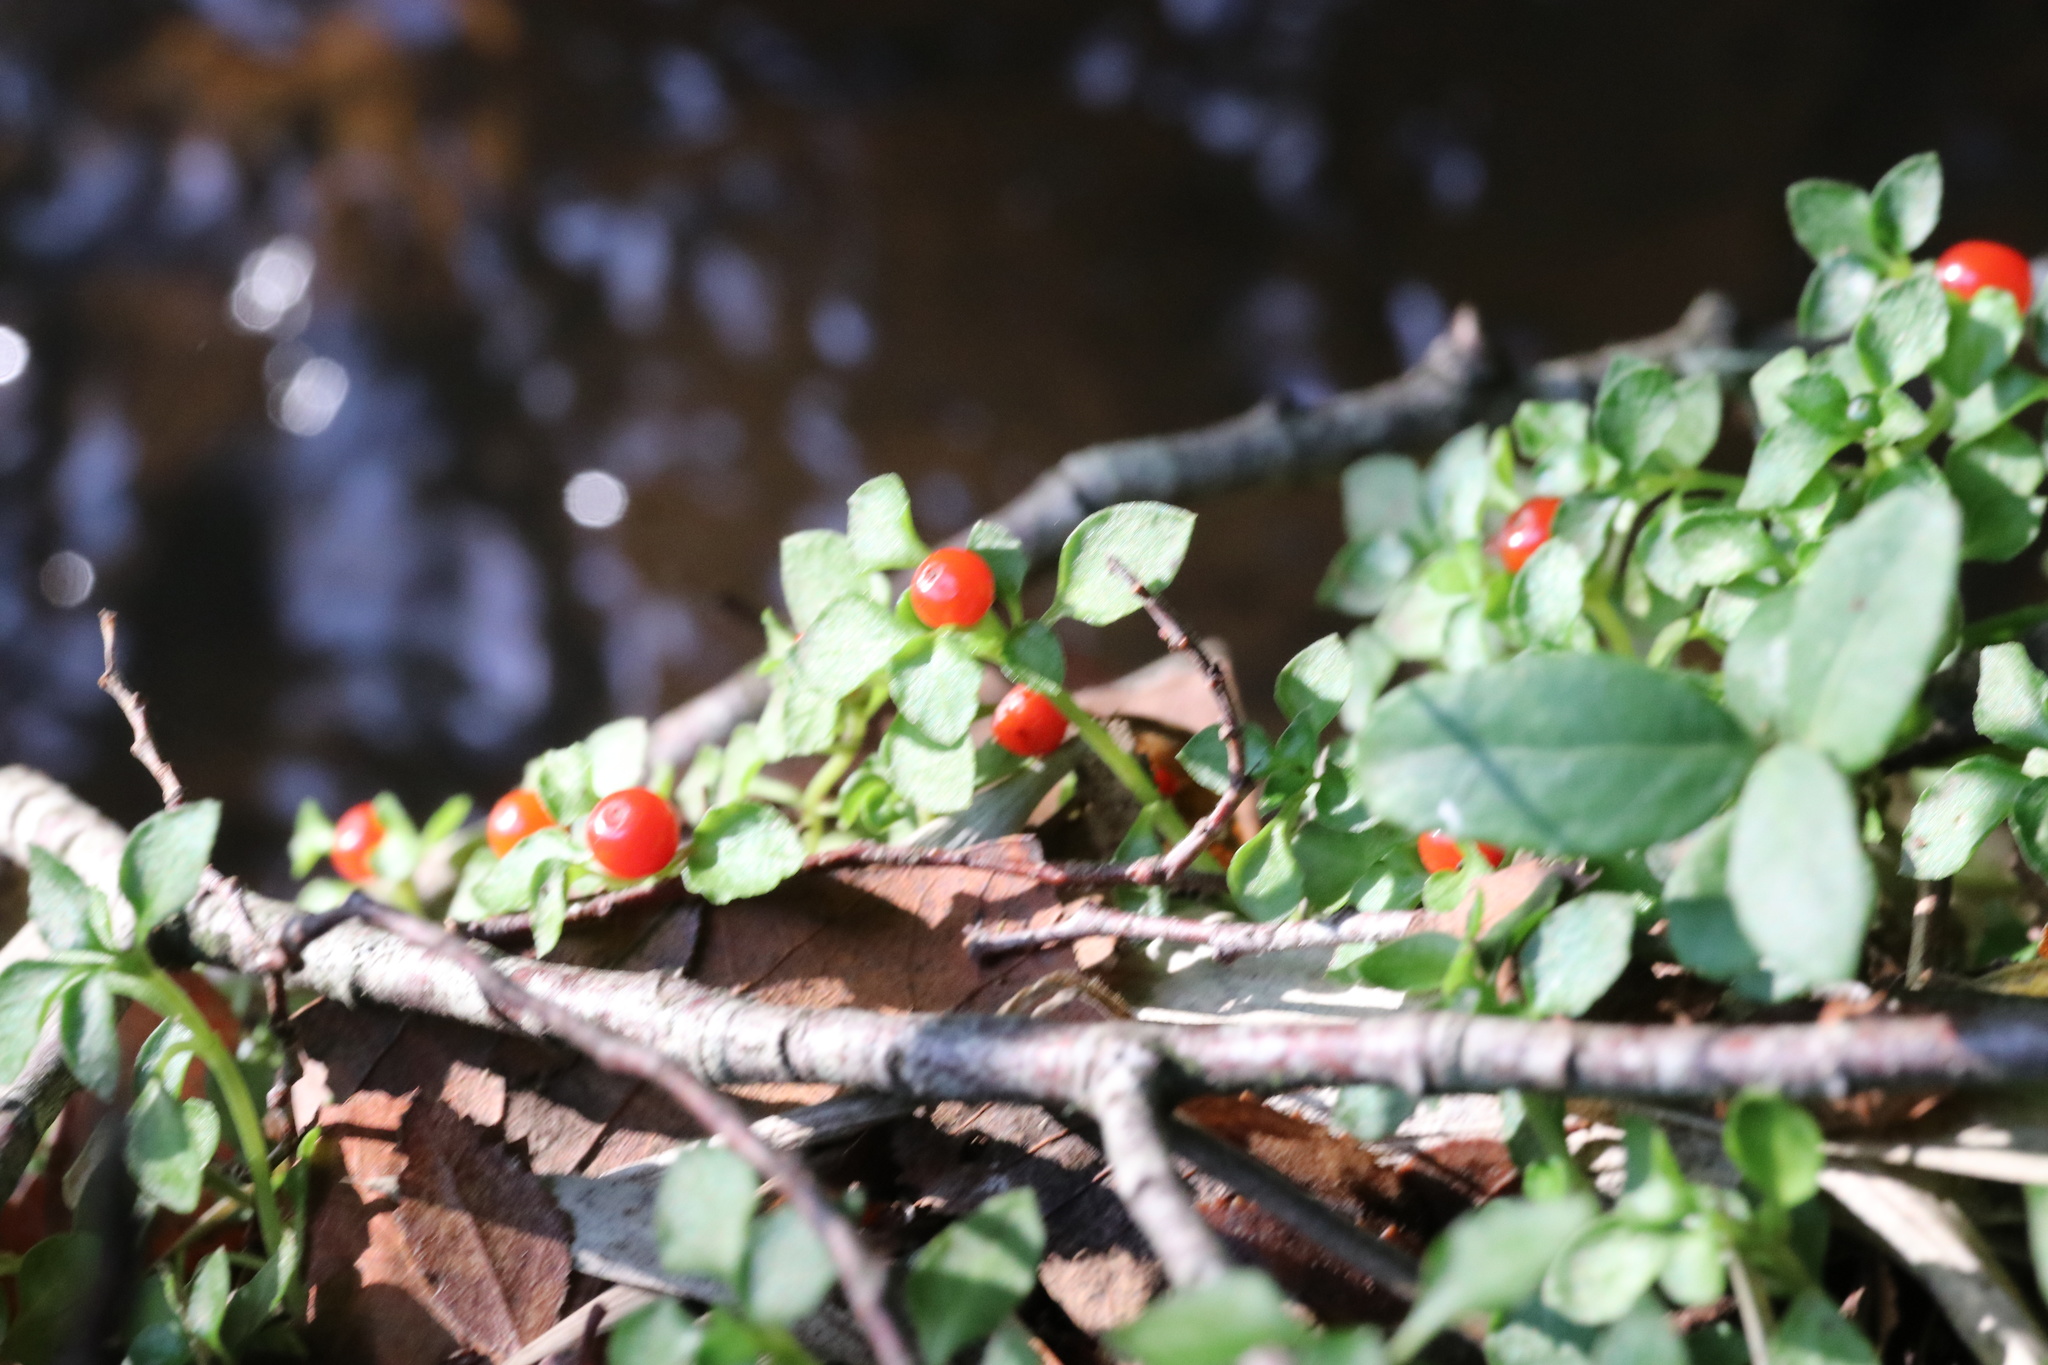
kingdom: Plantae
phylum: Tracheophyta
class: Magnoliopsida
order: Gentianales
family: Rubiaceae
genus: Nertera
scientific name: Nertera granadensis
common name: Beadplant
